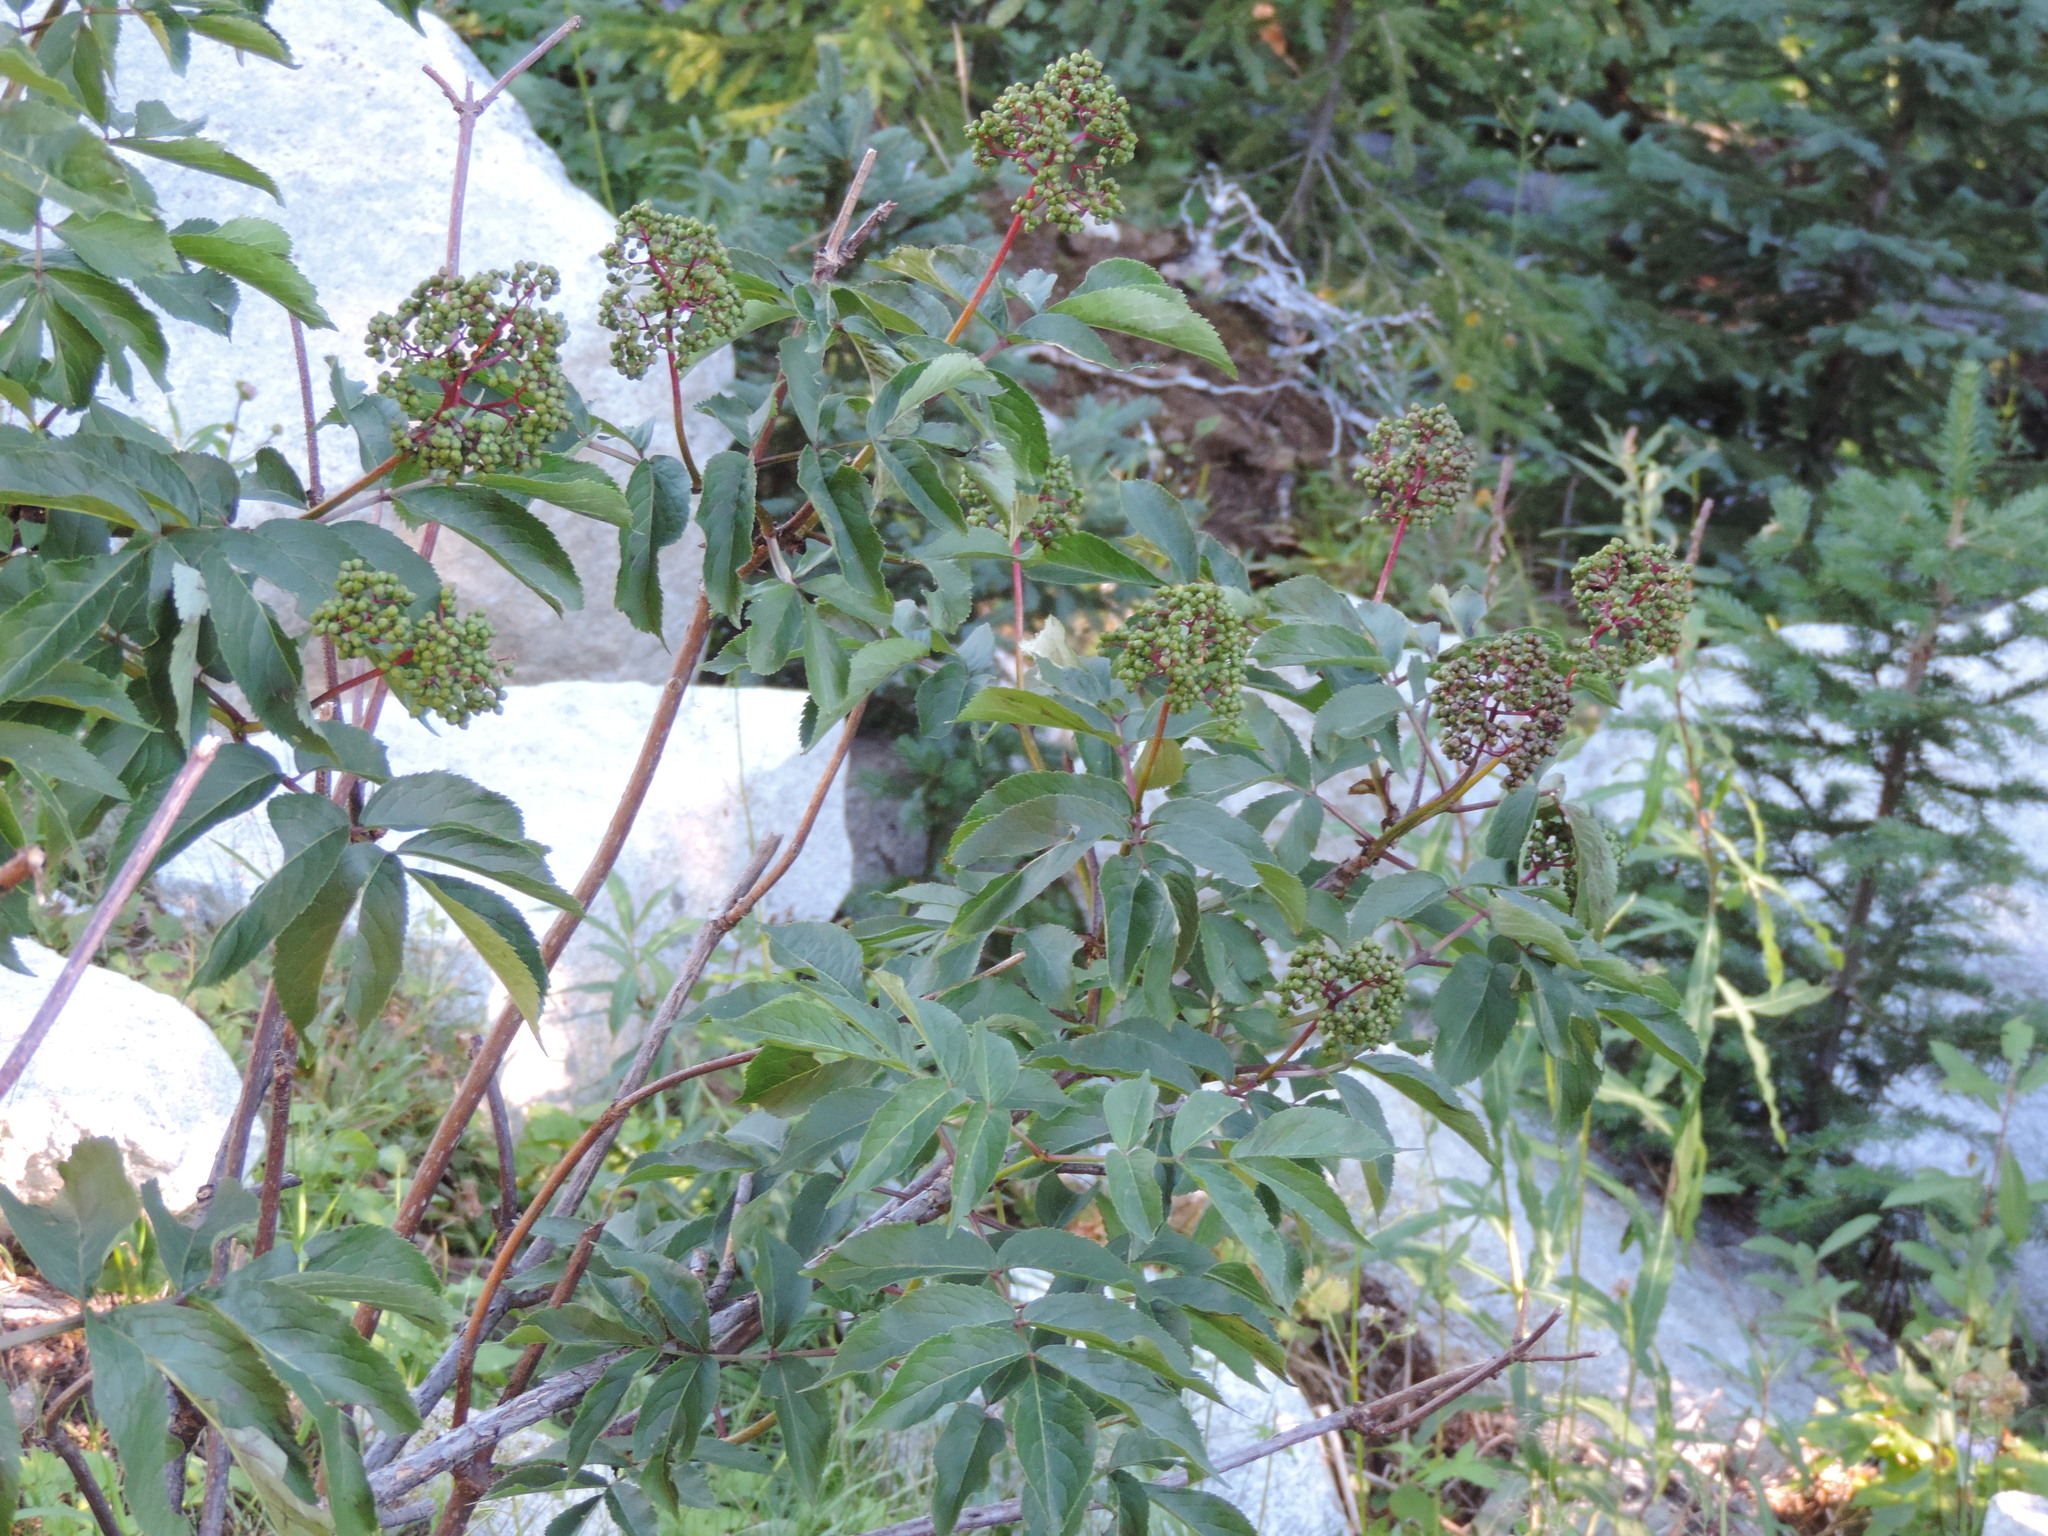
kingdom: Plantae
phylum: Tracheophyta
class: Magnoliopsida
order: Dipsacales
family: Viburnaceae
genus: Sambucus
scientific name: Sambucus racemosa
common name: Red-berried elder
